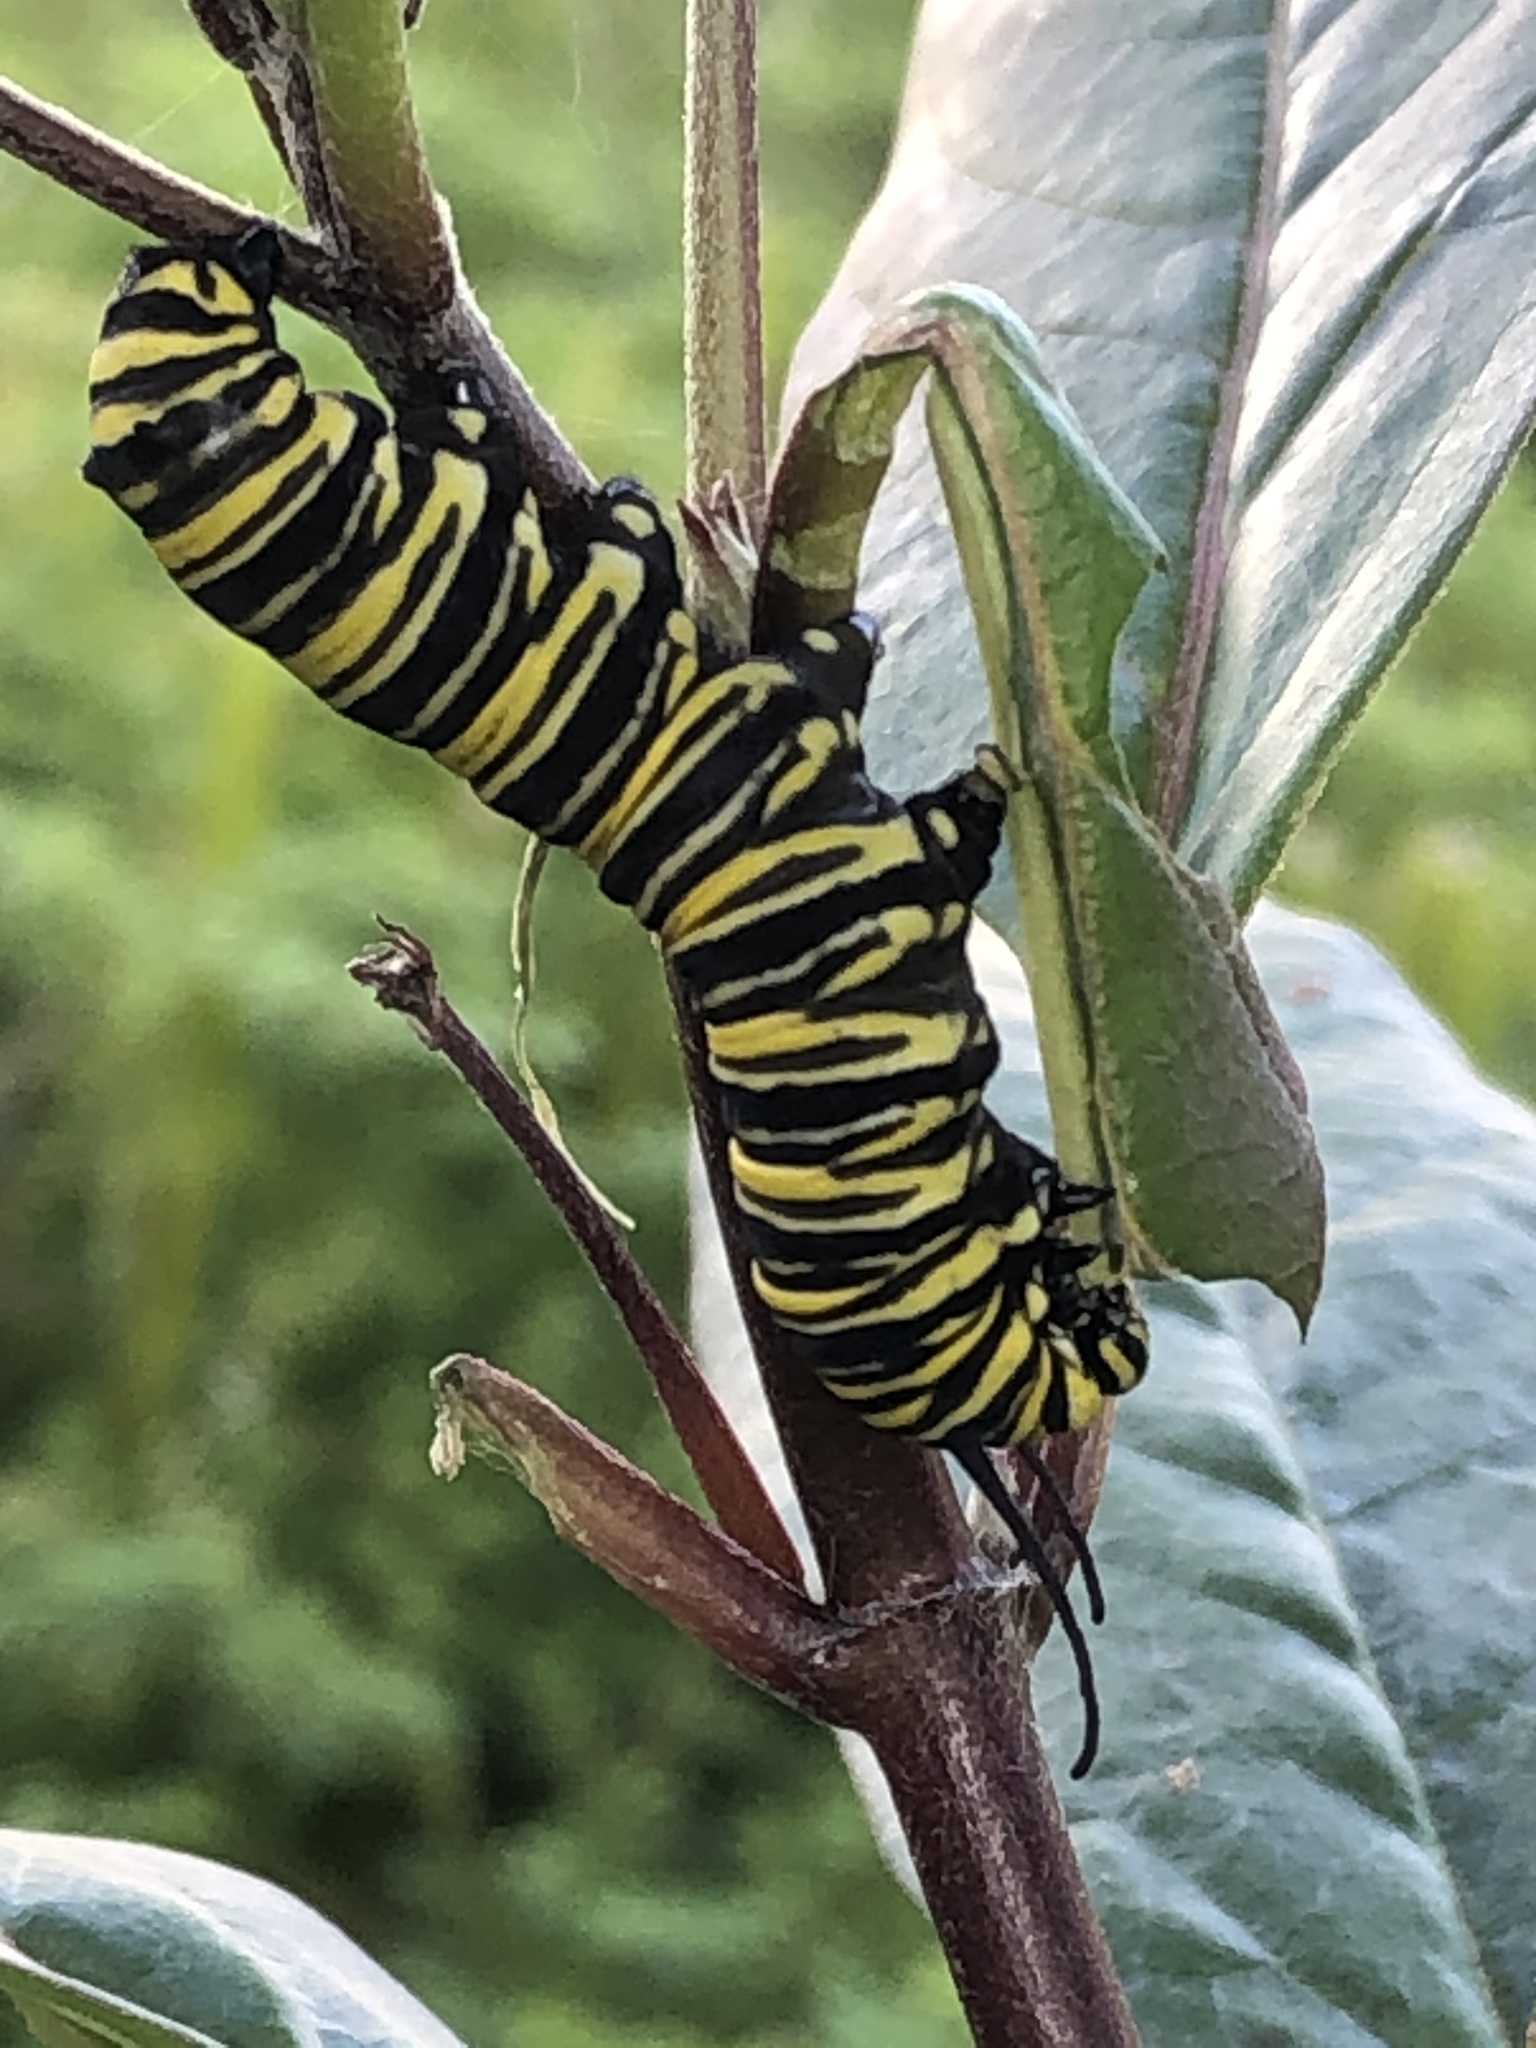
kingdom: Animalia
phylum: Arthropoda
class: Insecta
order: Lepidoptera
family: Nymphalidae
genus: Danaus
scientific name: Danaus plexippus
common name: Monarch
